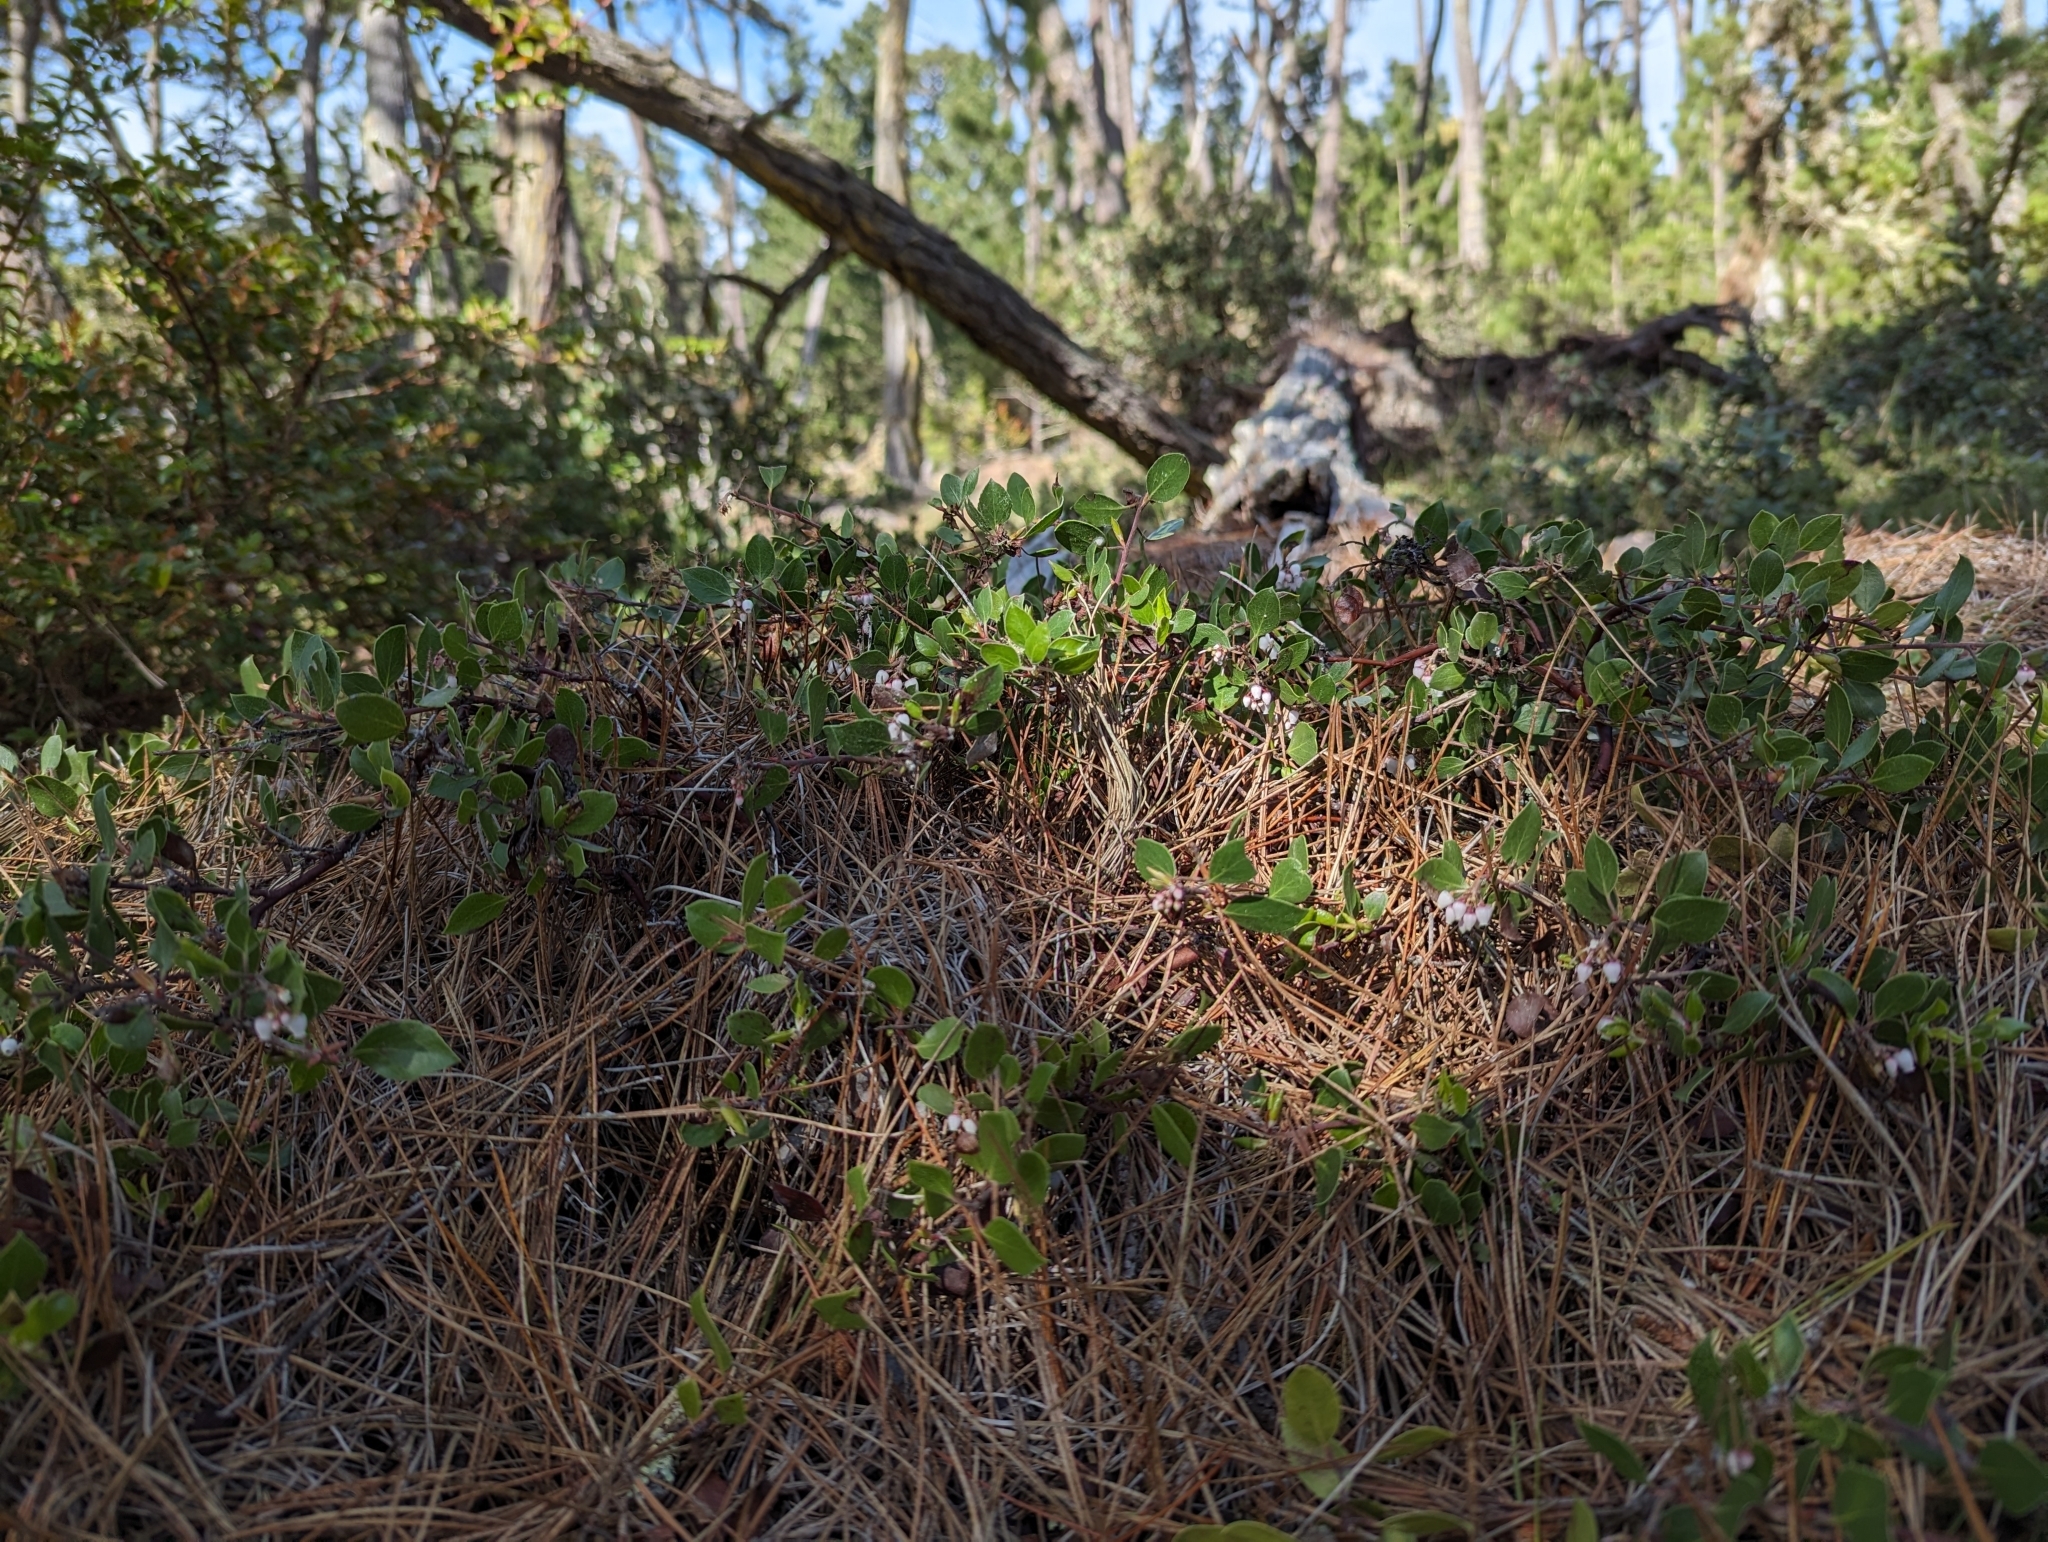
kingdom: Plantae
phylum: Tracheophyta
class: Magnoliopsida
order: Ericales
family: Ericaceae
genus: Arctostaphylos
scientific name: Arctostaphylos hookeri
